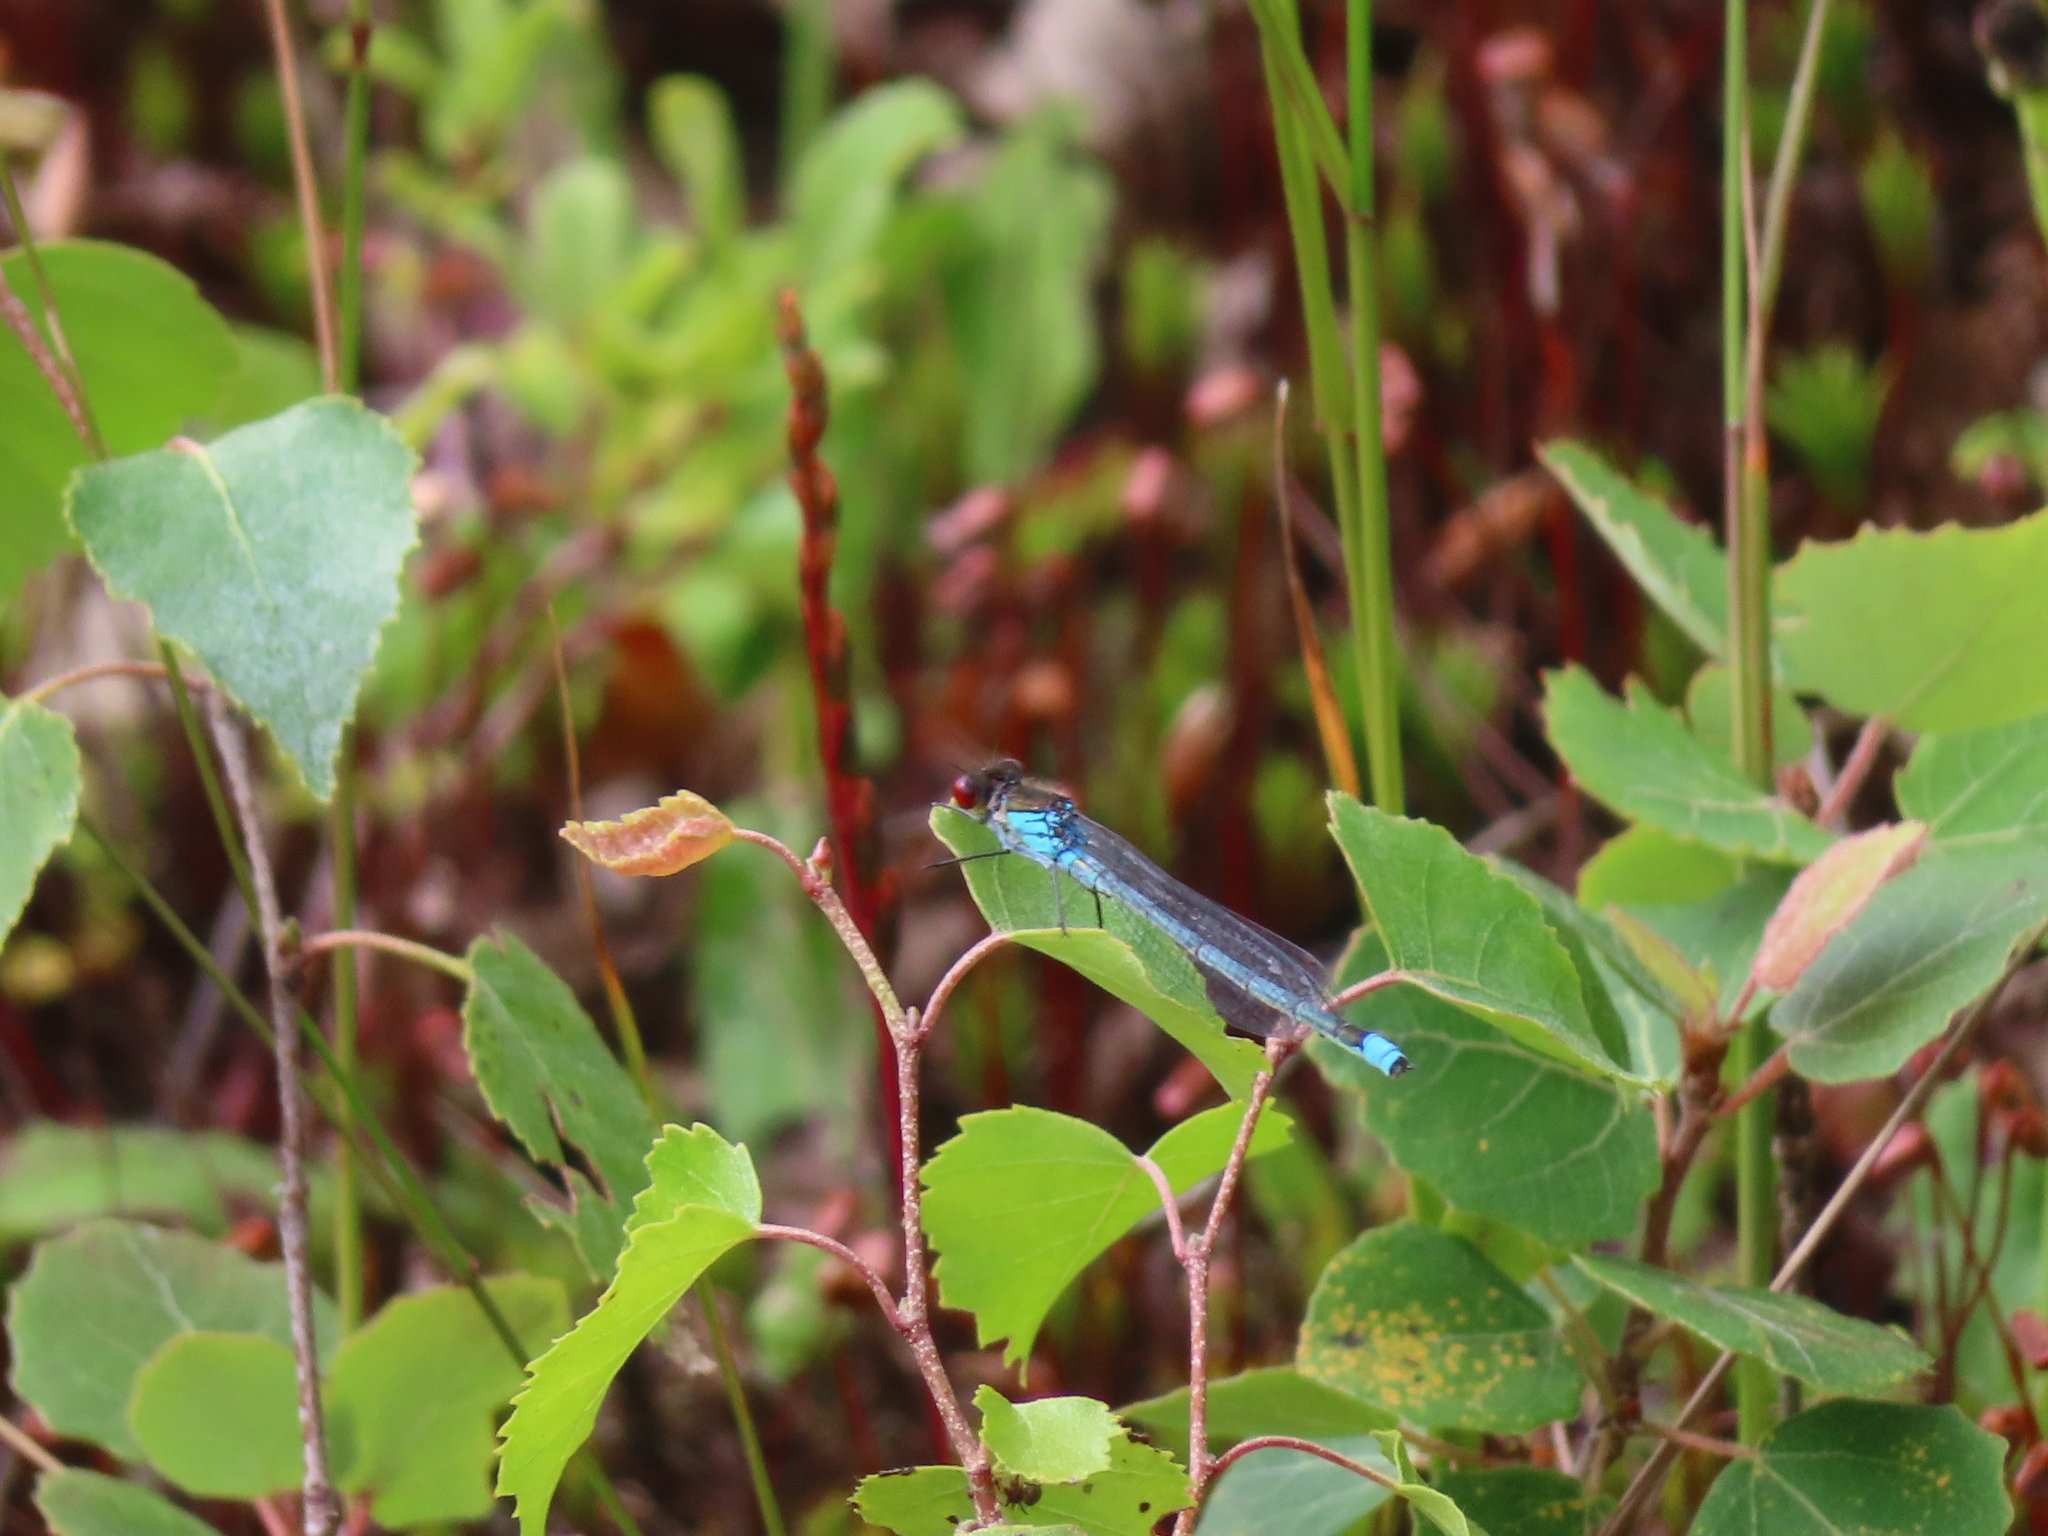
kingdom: Animalia
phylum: Arthropoda
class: Insecta
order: Odonata
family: Coenagrionidae
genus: Erythromma
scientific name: Erythromma najas
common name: Red-eyed damselfly
